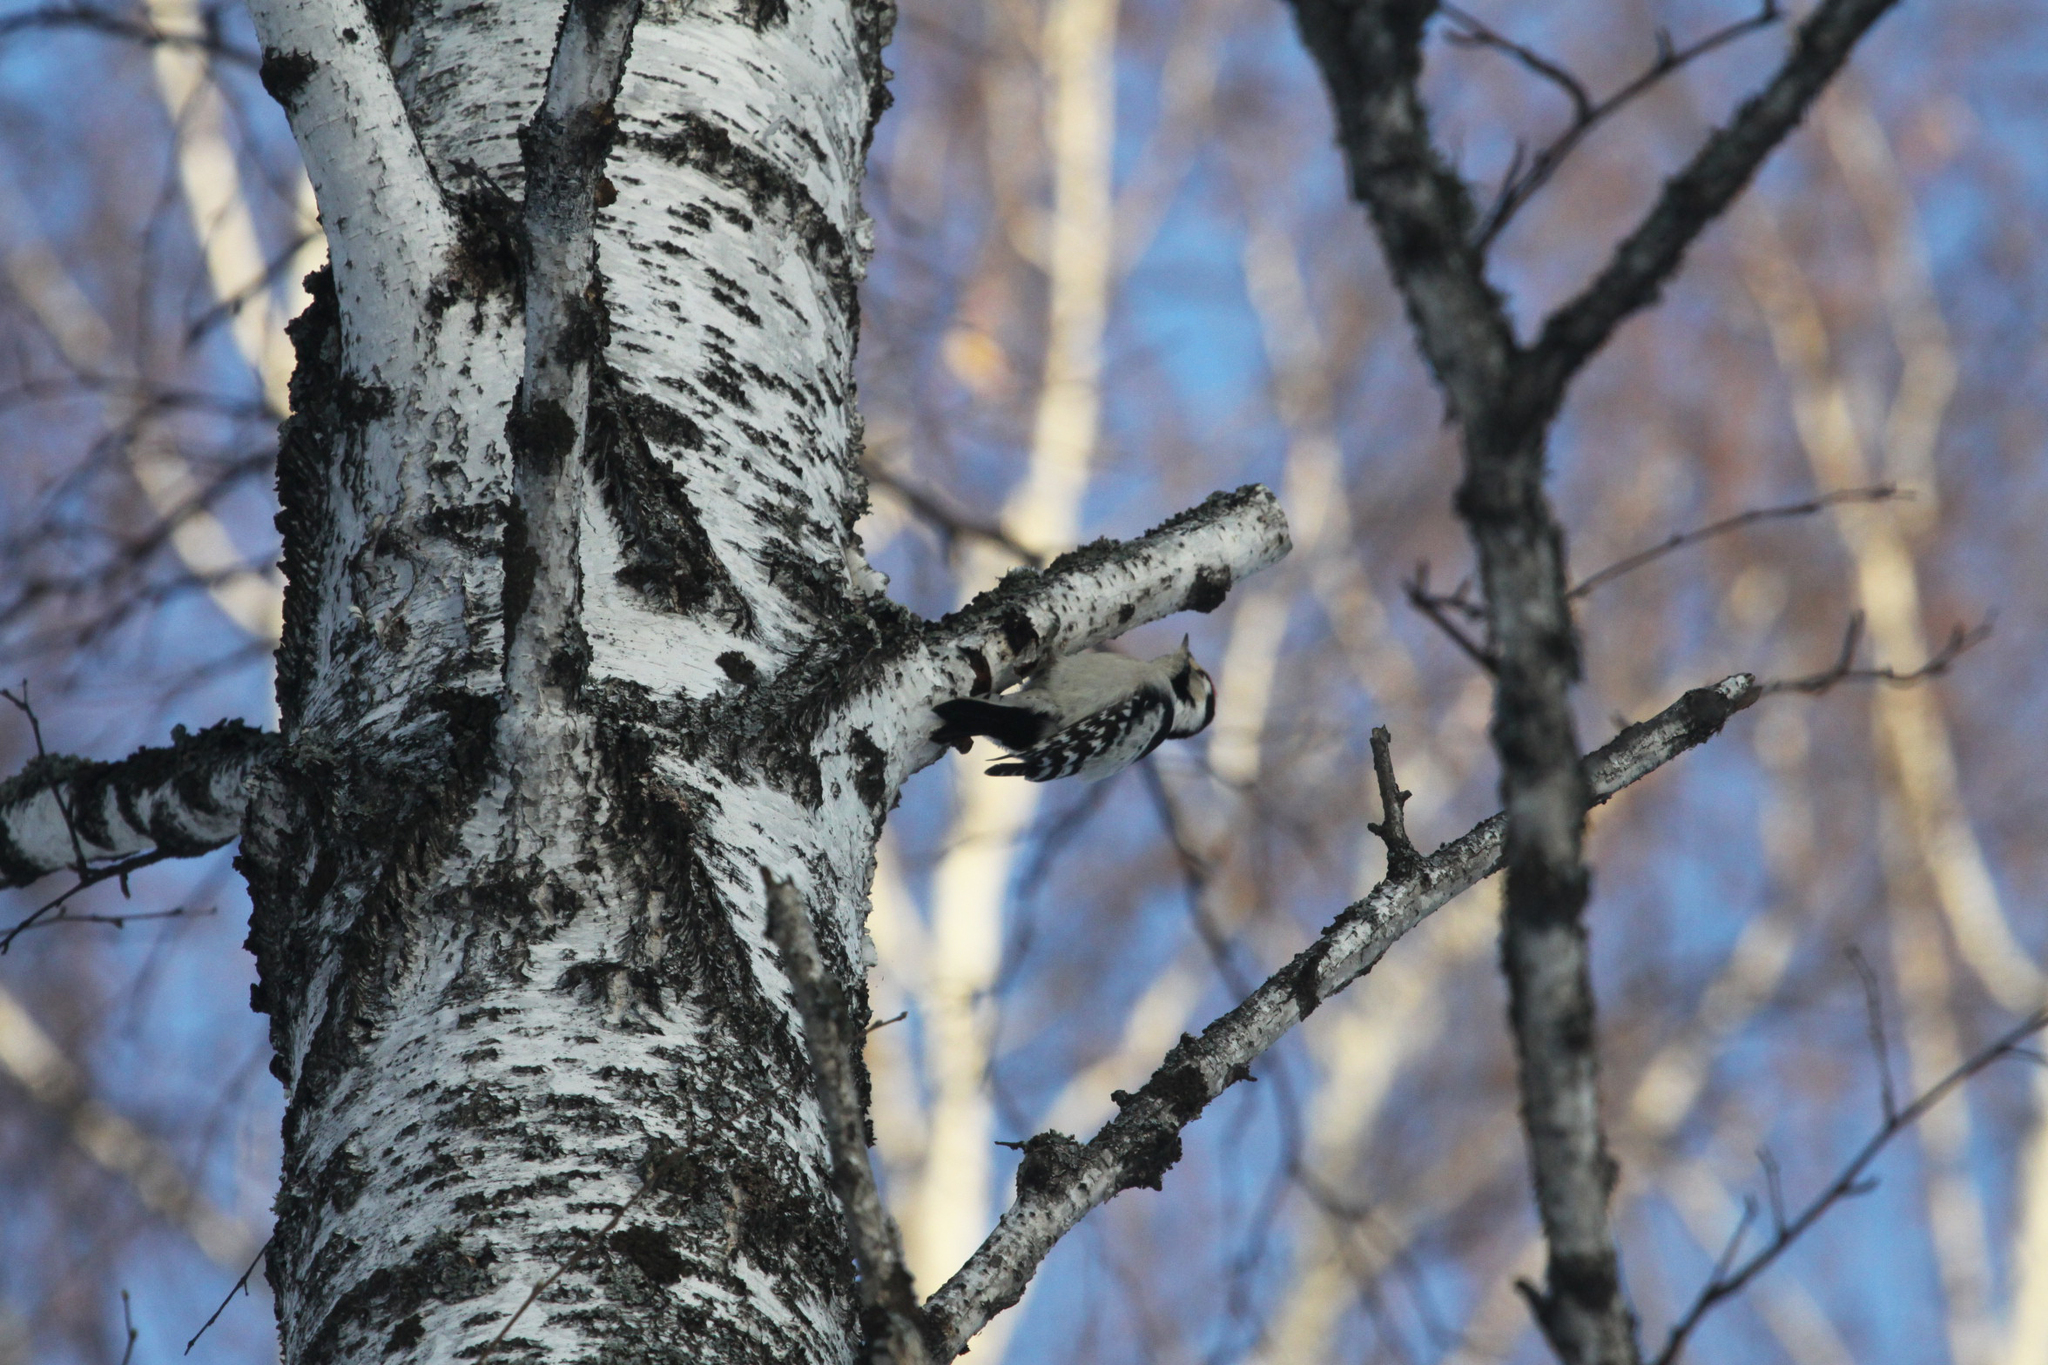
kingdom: Animalia
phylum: Chordata
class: Aves
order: Piciformes
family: Picidae
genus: Dryobates
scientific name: Dryobates minor
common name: Lesser spotted woodpecker
